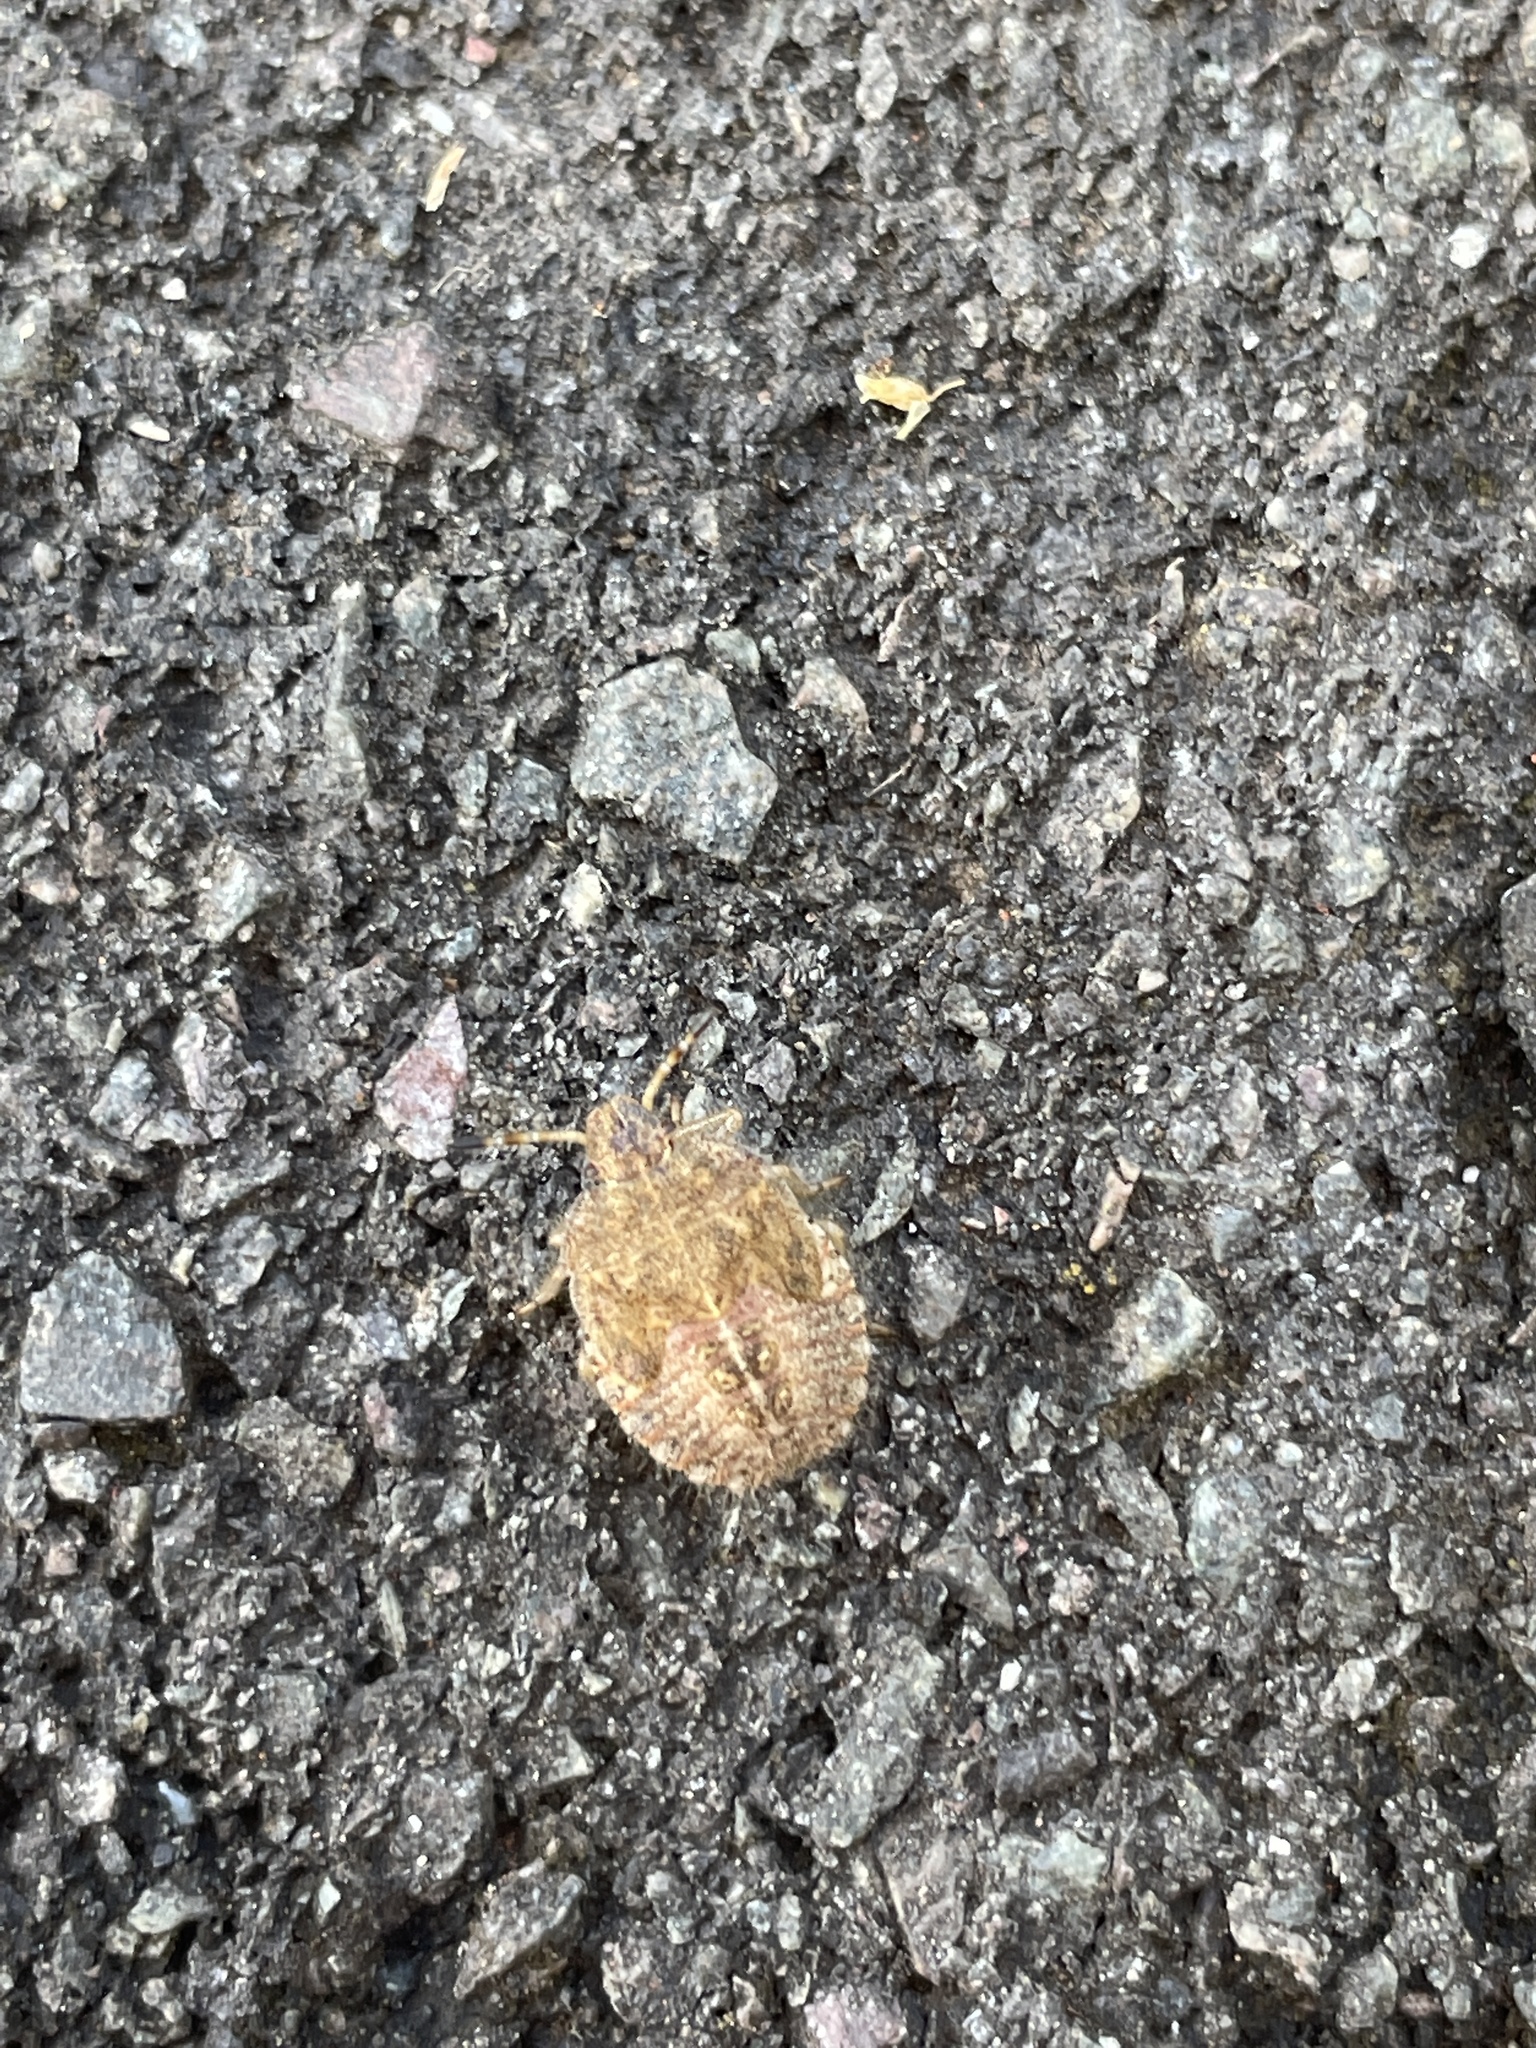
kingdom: Animalia
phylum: Arthropoda
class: Insecta
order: Hemiptera
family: Pentatomidae
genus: Dolycoris
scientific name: Dolycoris baccarum
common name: Sloe bug
